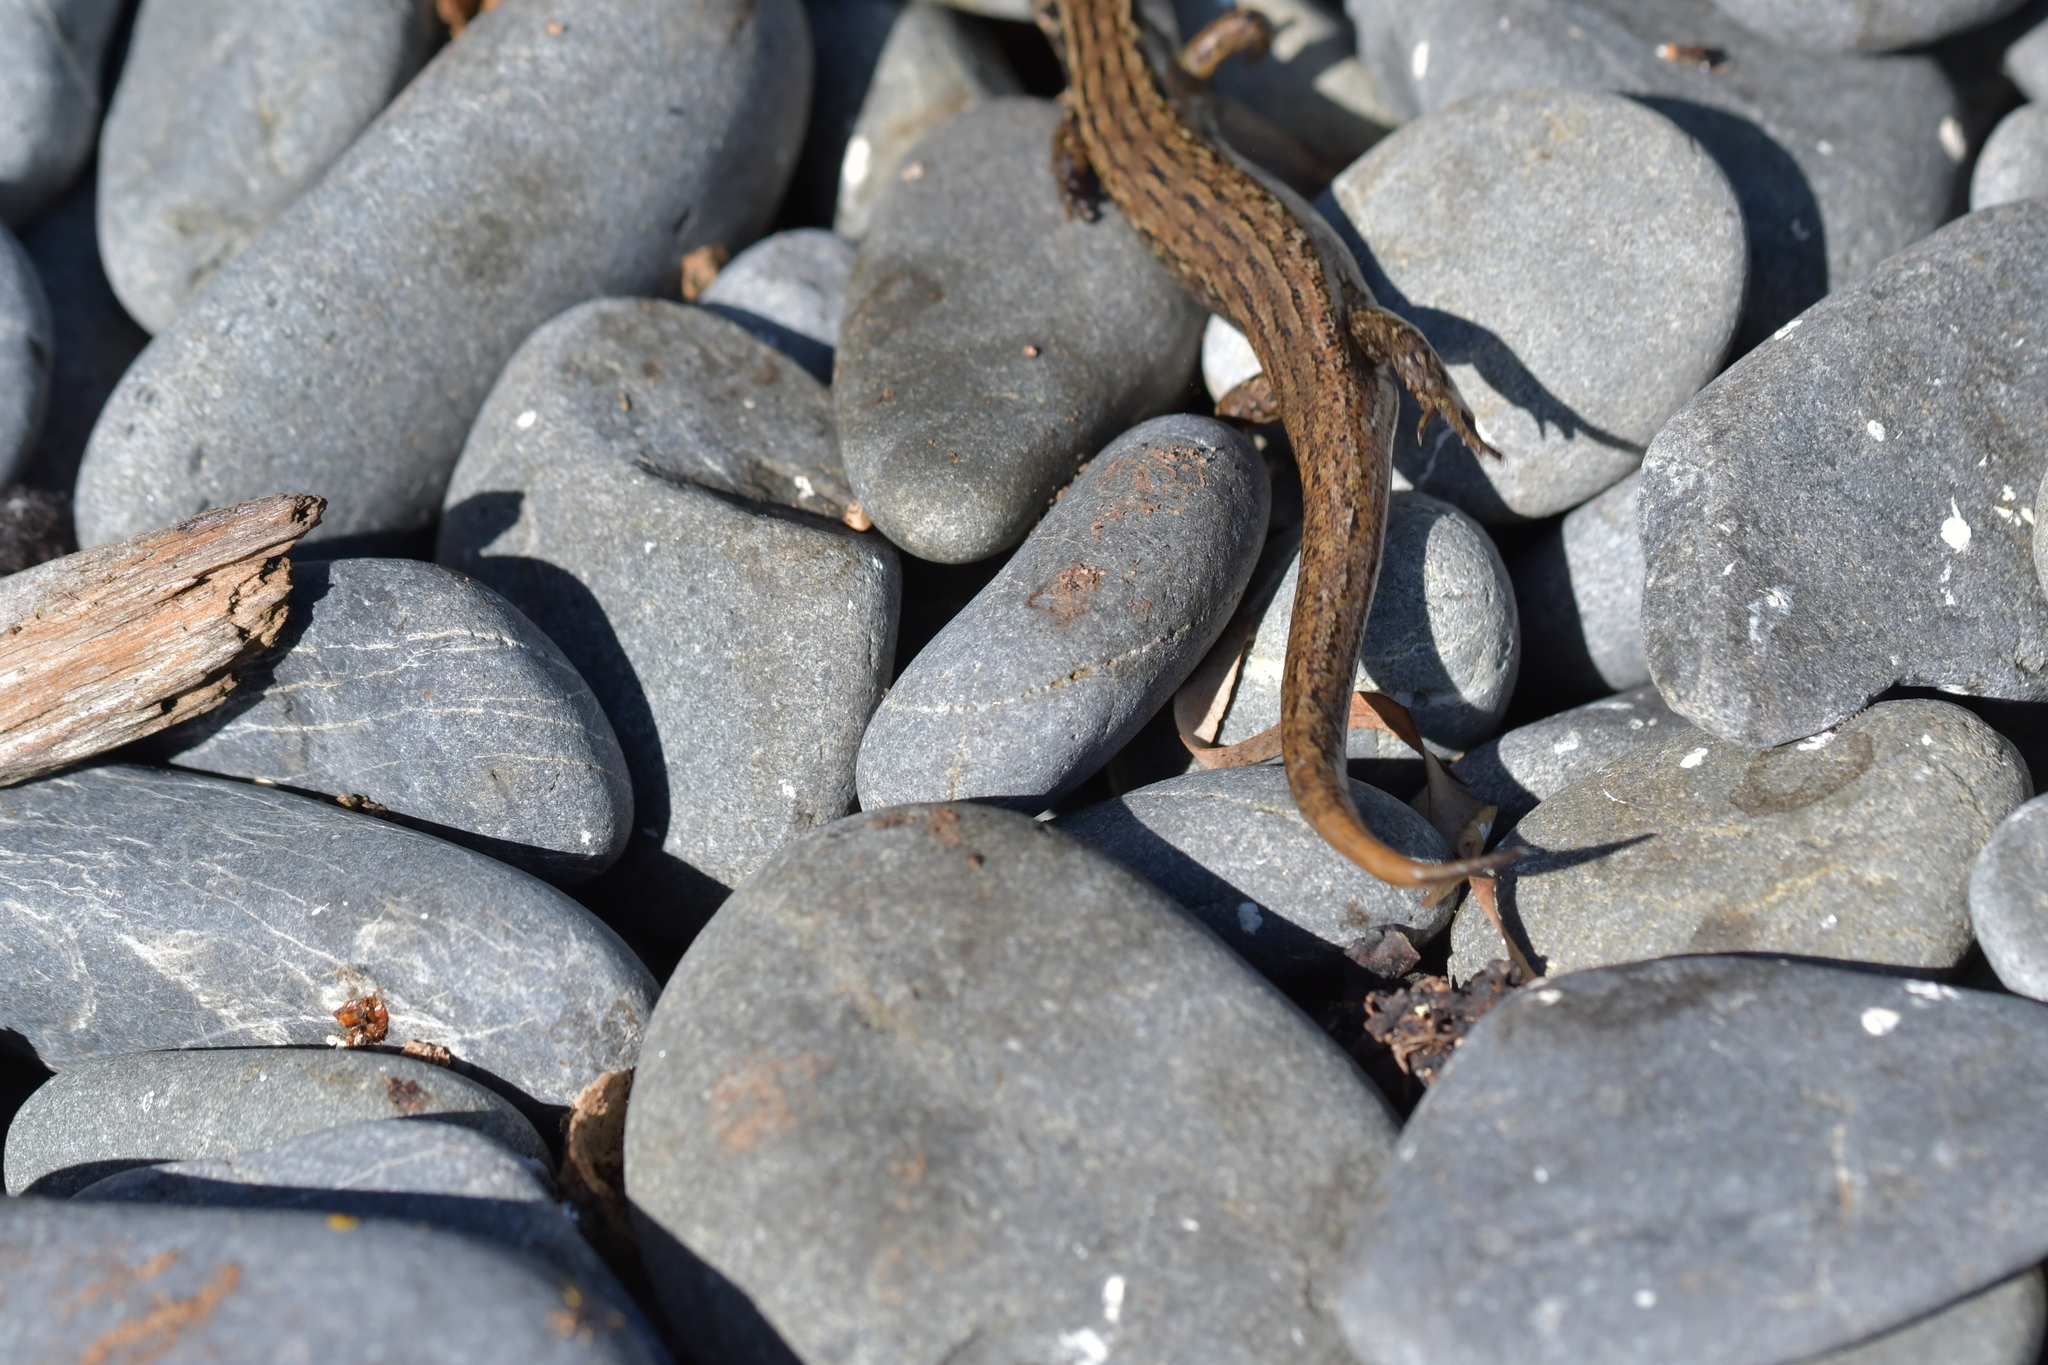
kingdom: Animalia
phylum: Chordata
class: Squamata
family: Scincidae
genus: Oligosoma
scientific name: Oligosoma macgregori
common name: Macgregor's skink
